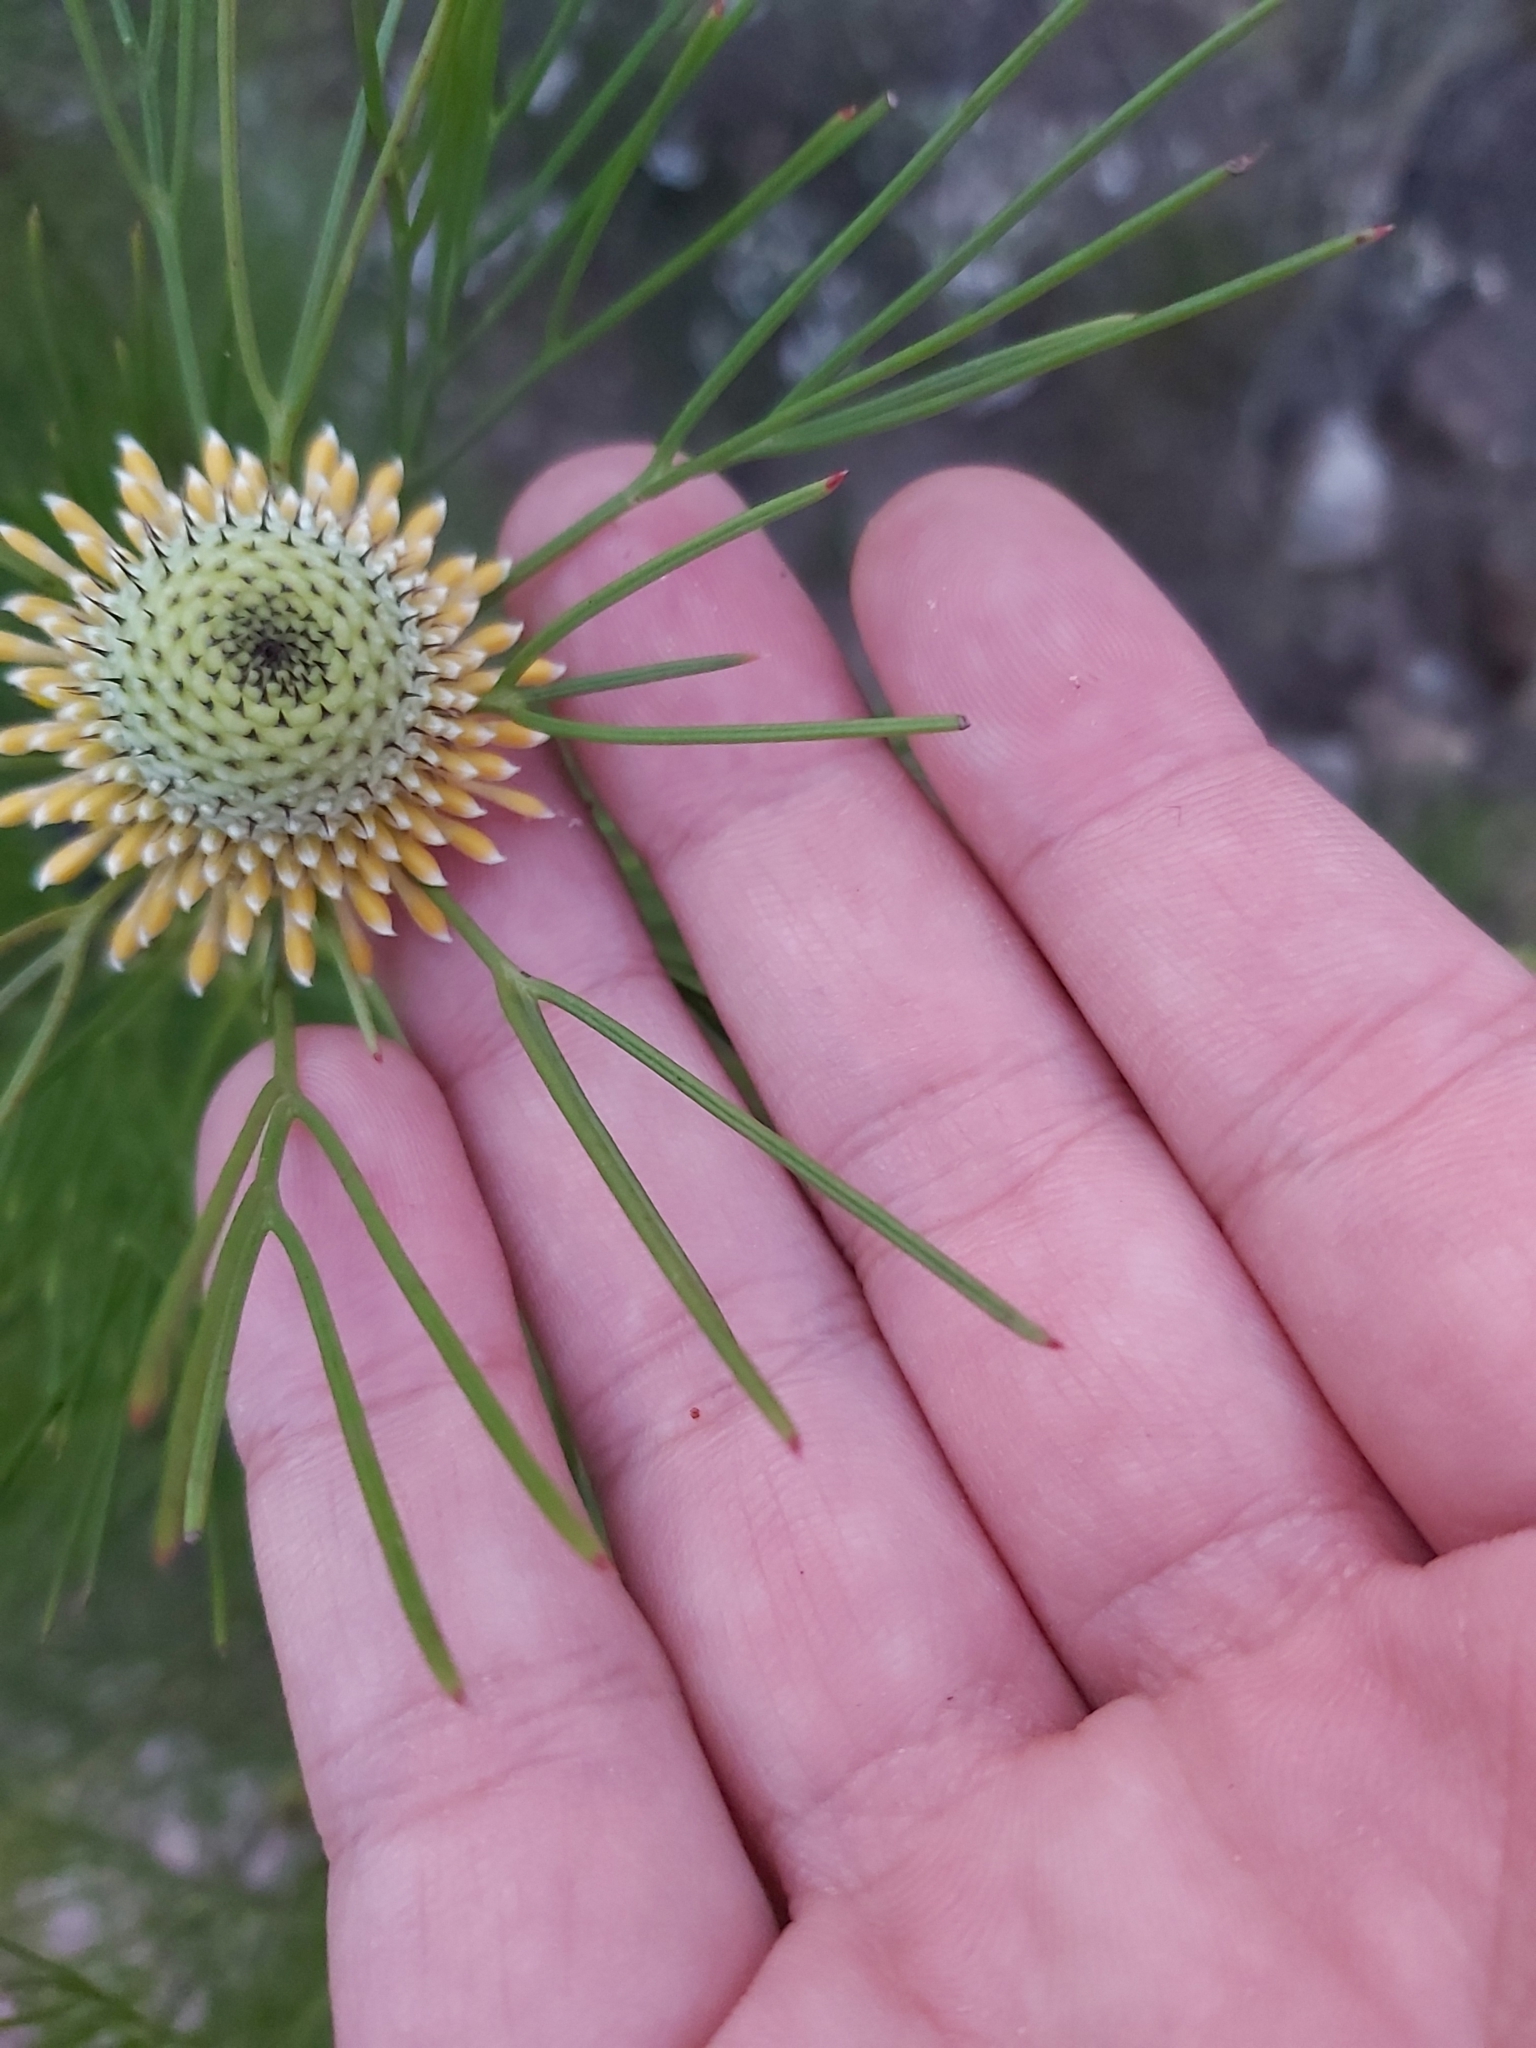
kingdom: Plantae
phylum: Tracheophyta
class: Magnoliopsida
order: Proteales
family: Proteaceae
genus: Isopogon
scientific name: Isopogon anethifolius
